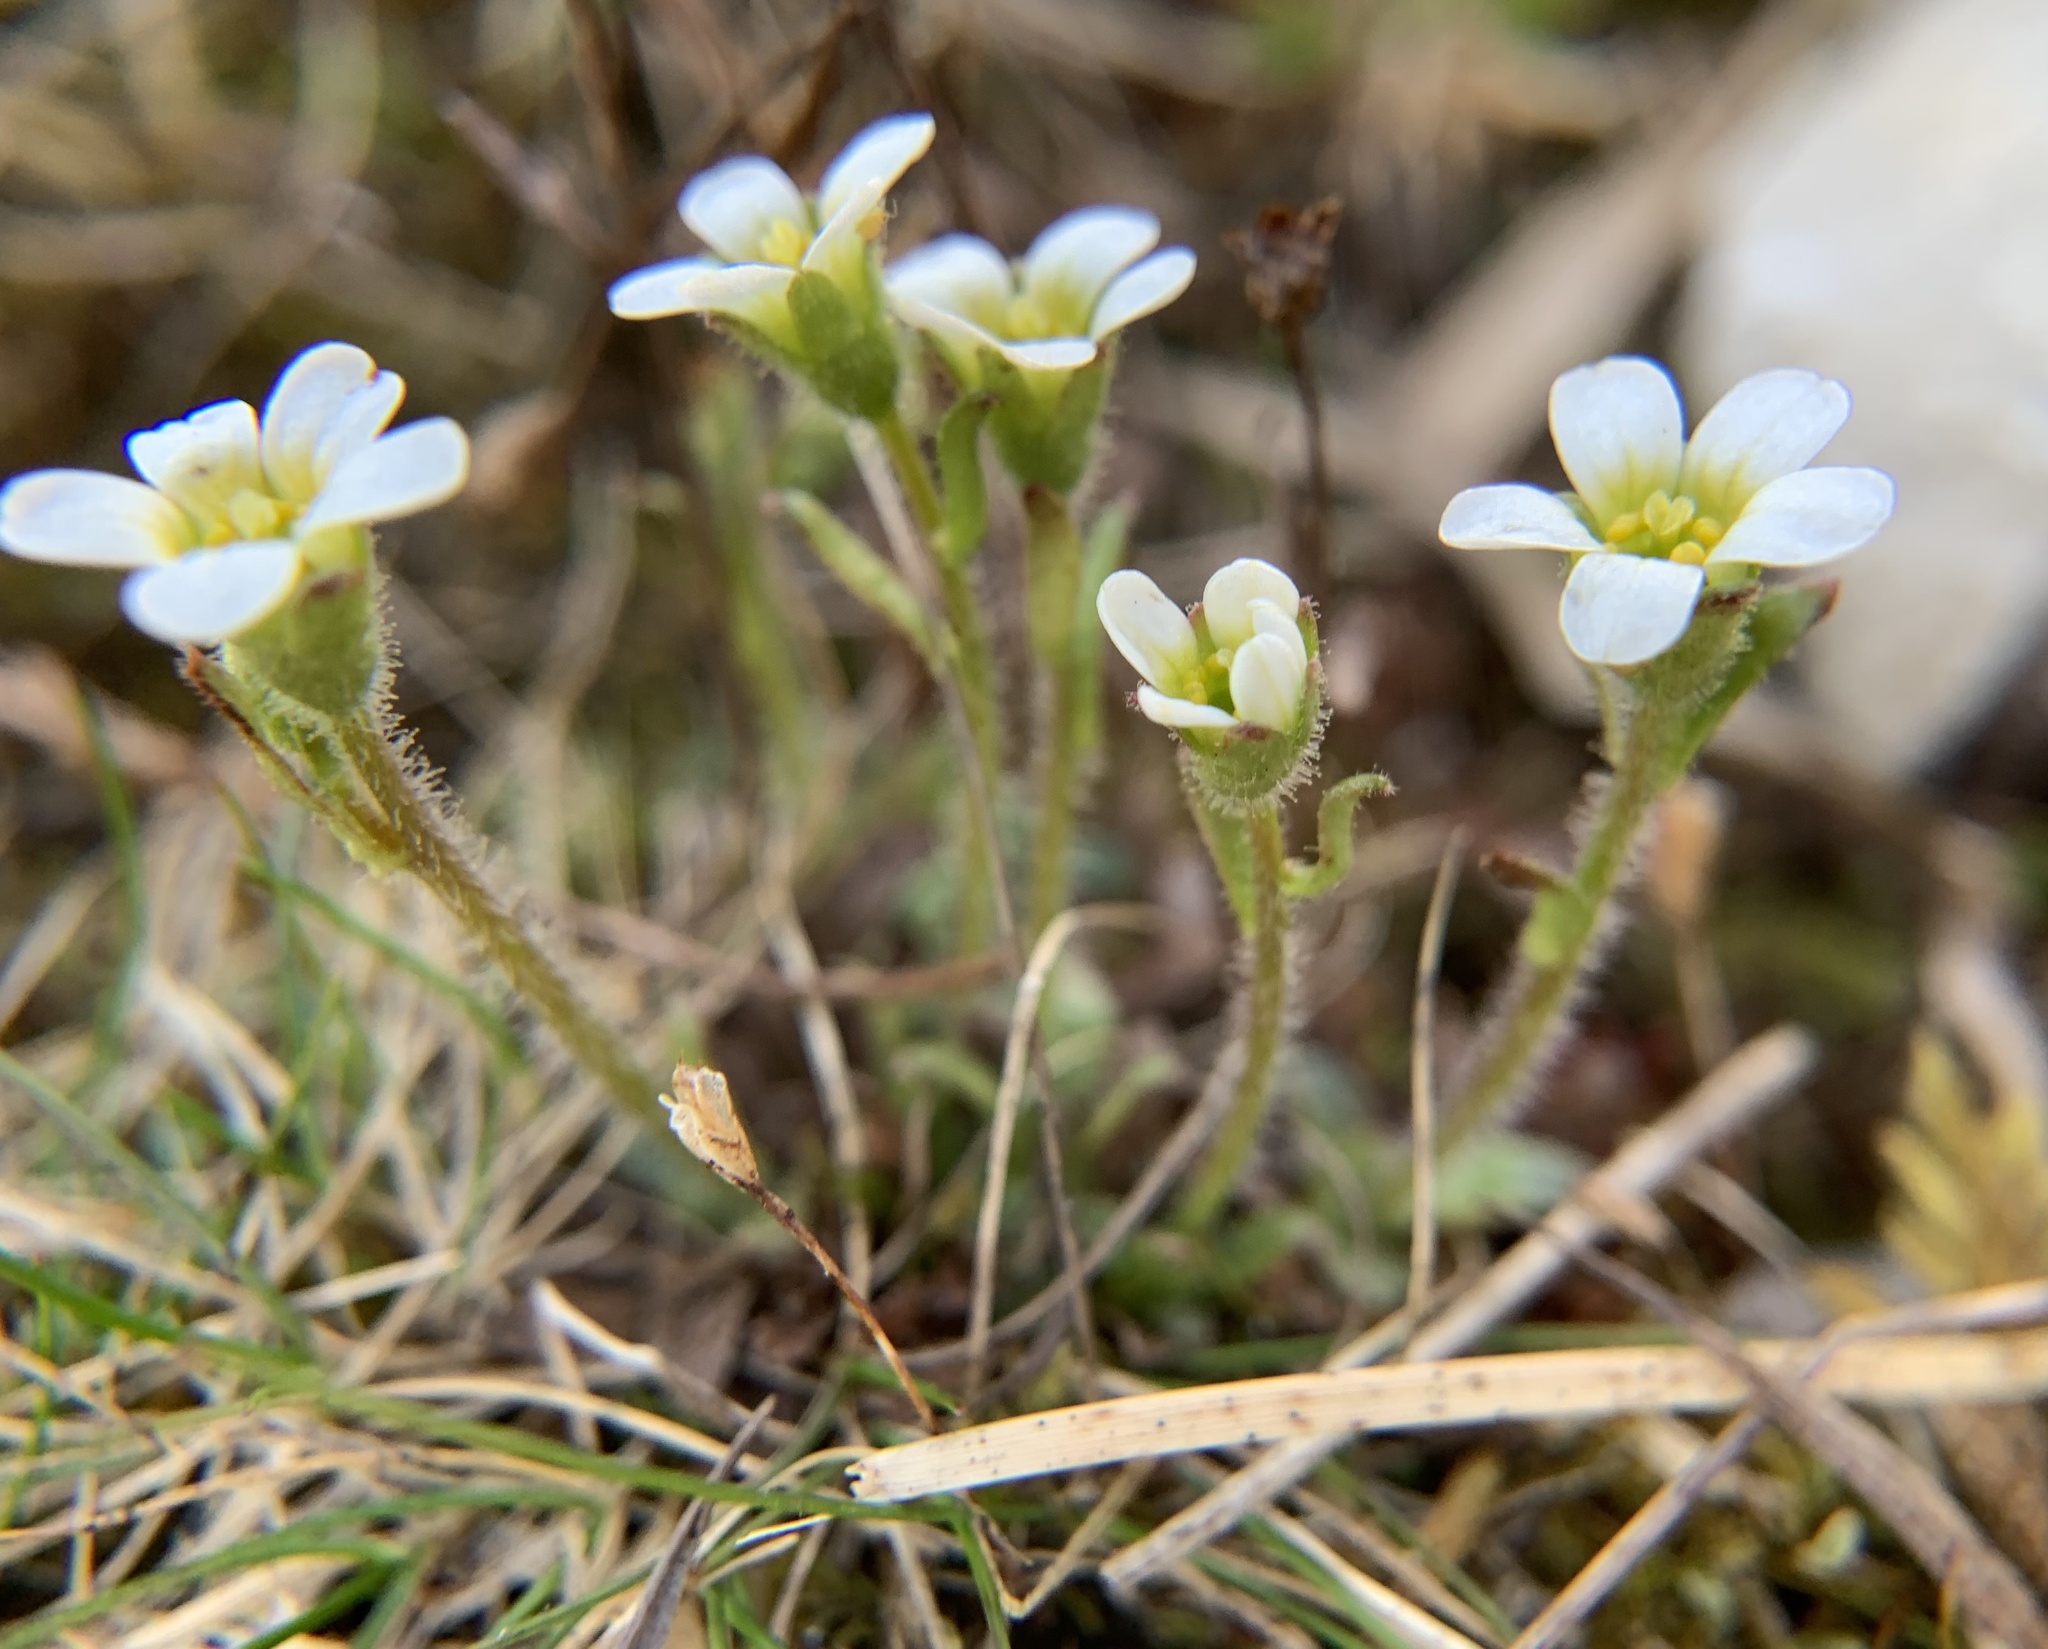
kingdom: Plantae
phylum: Tracheophyta
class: Magnoliopsida
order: Saxifragales
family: Saxifragaceae
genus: Saxifraga
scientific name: Saxifraga androsacea
